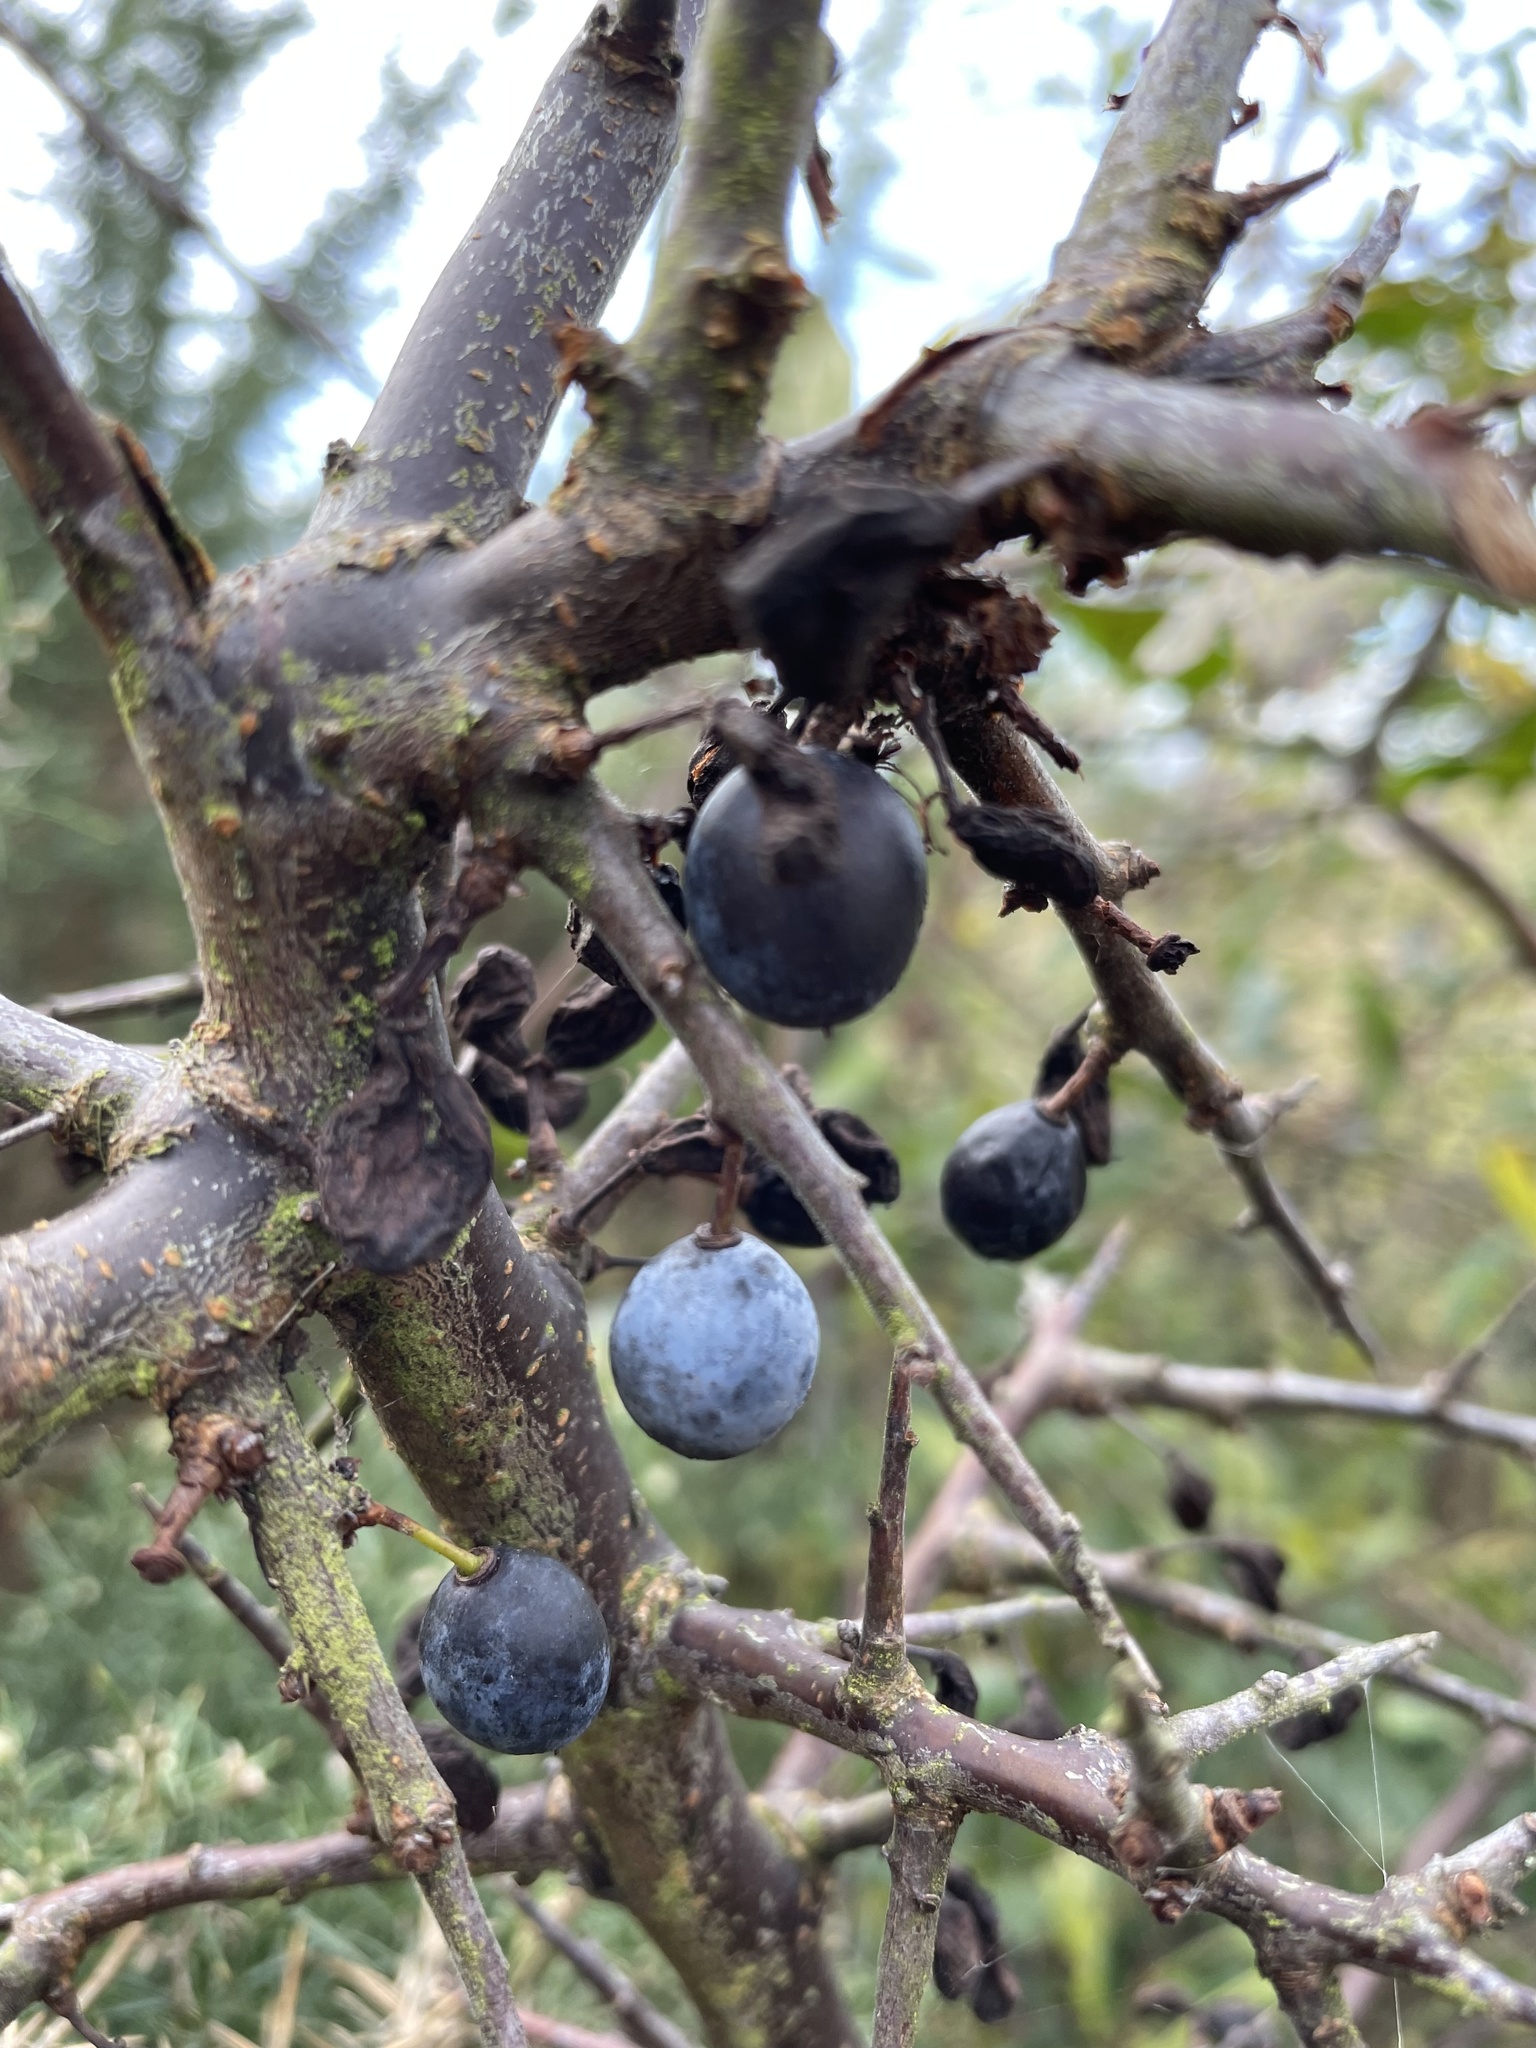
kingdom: Plantae
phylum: Tracheophyta
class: Magnoliopsida
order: Rosales
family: Rosaceae
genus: Prunus
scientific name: Prunus spinosa
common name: Blackthorn
